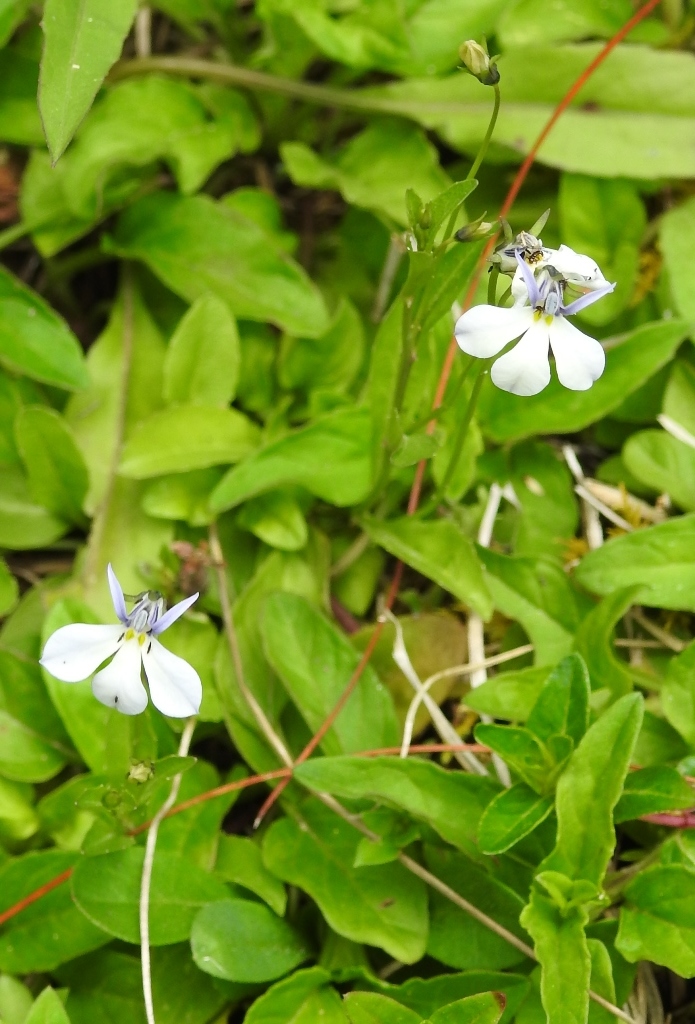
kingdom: Plantae
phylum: Tracheophyta
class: Magnoliopsida
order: Asterales
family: Campanulaceae
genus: Diastatea
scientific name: Diastatea micrantha
